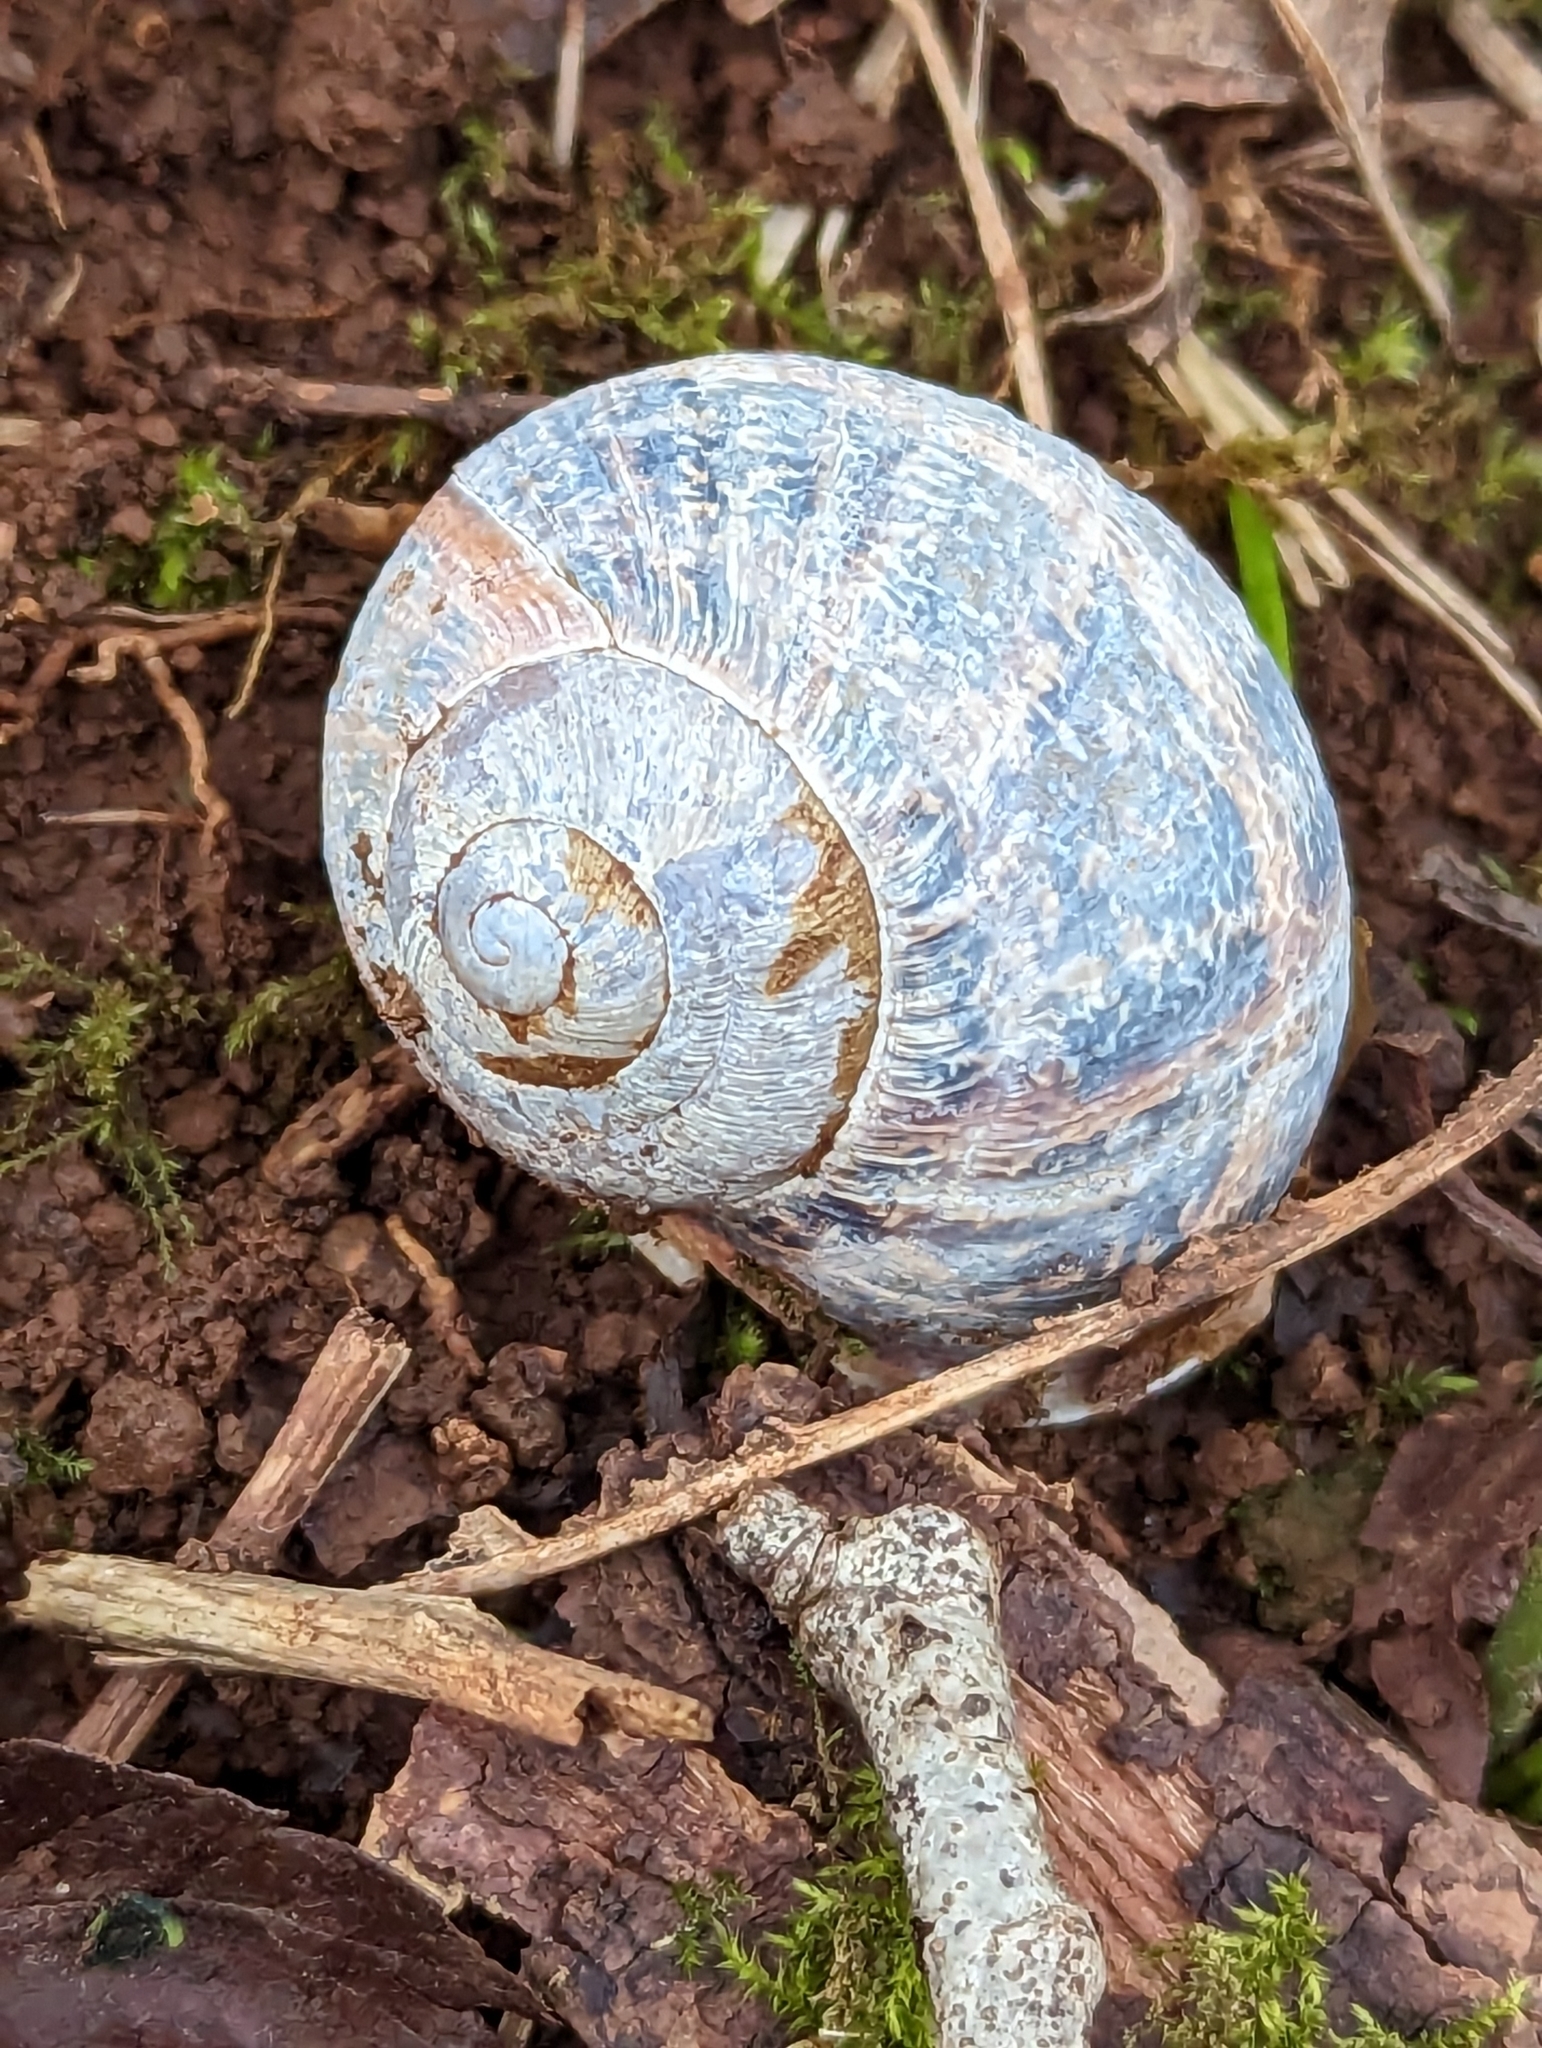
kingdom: Animalia
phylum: Mollusca
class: Gastropoda
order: Stylommatophora
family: Helicidae
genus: Cornu
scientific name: Cornu aspersum
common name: Brown garden snail
